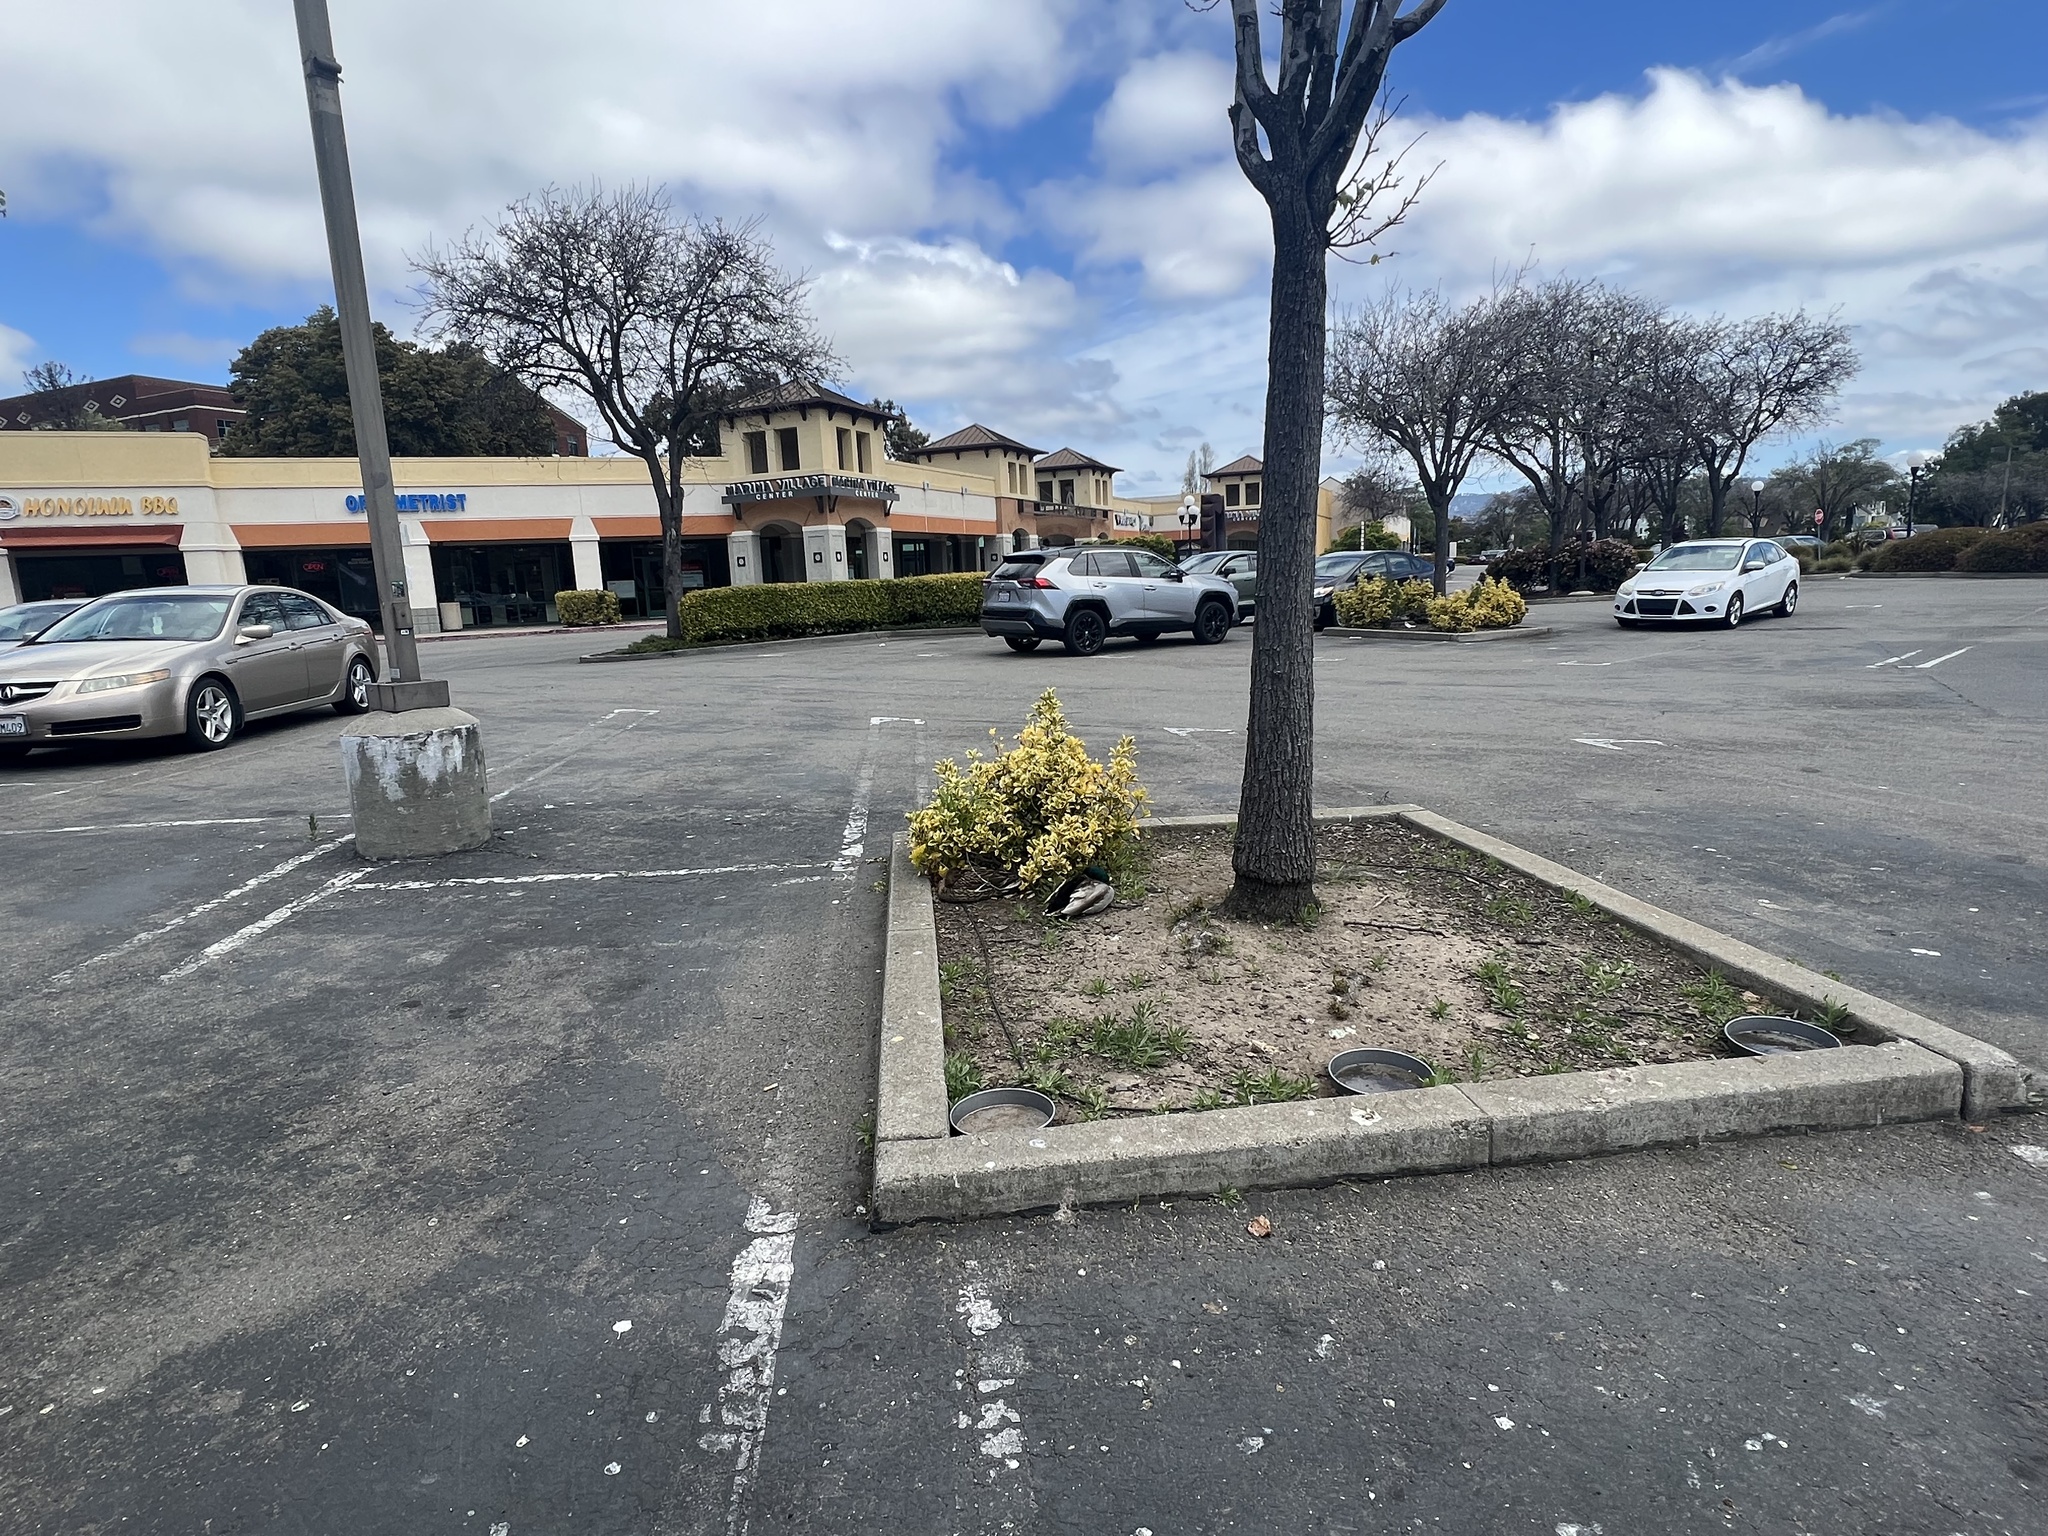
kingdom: Animalia
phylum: Chordata
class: Aves
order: Anseriformes
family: Anatidae
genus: Anas
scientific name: Anas platyrhynchos
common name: Mallard
